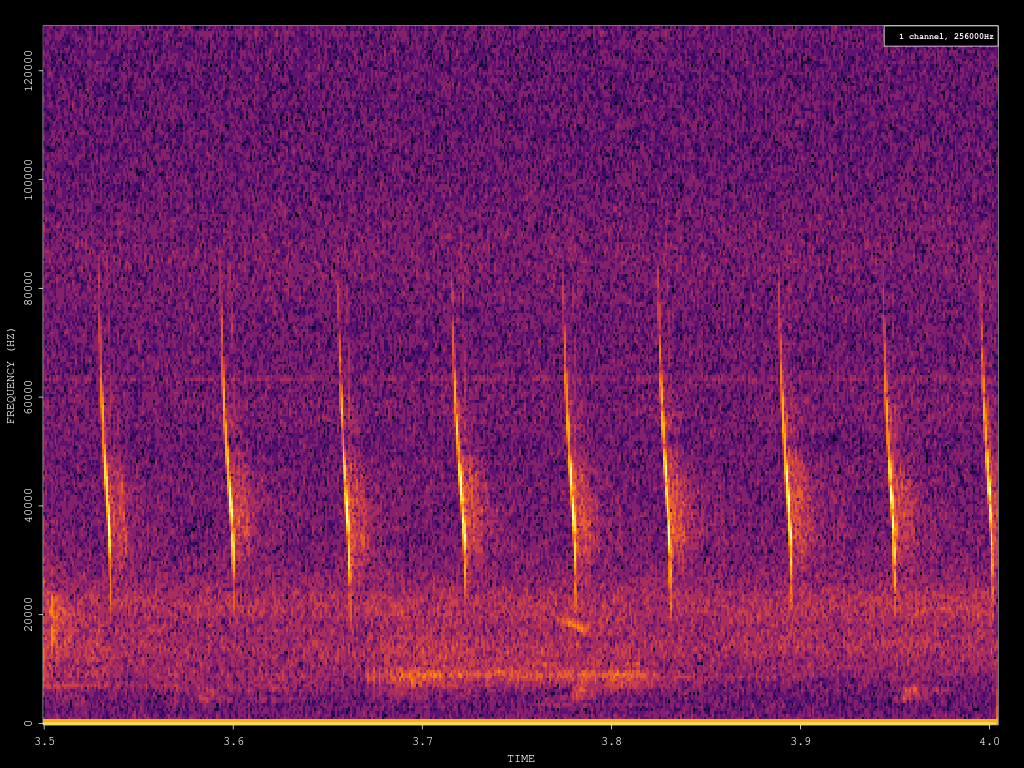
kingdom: Animalia
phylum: Chordata
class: Mammalia
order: Chiroptera
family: Vespertilionidae
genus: Myotis
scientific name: Myotis daubentonii
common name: Daubenton's myotis
